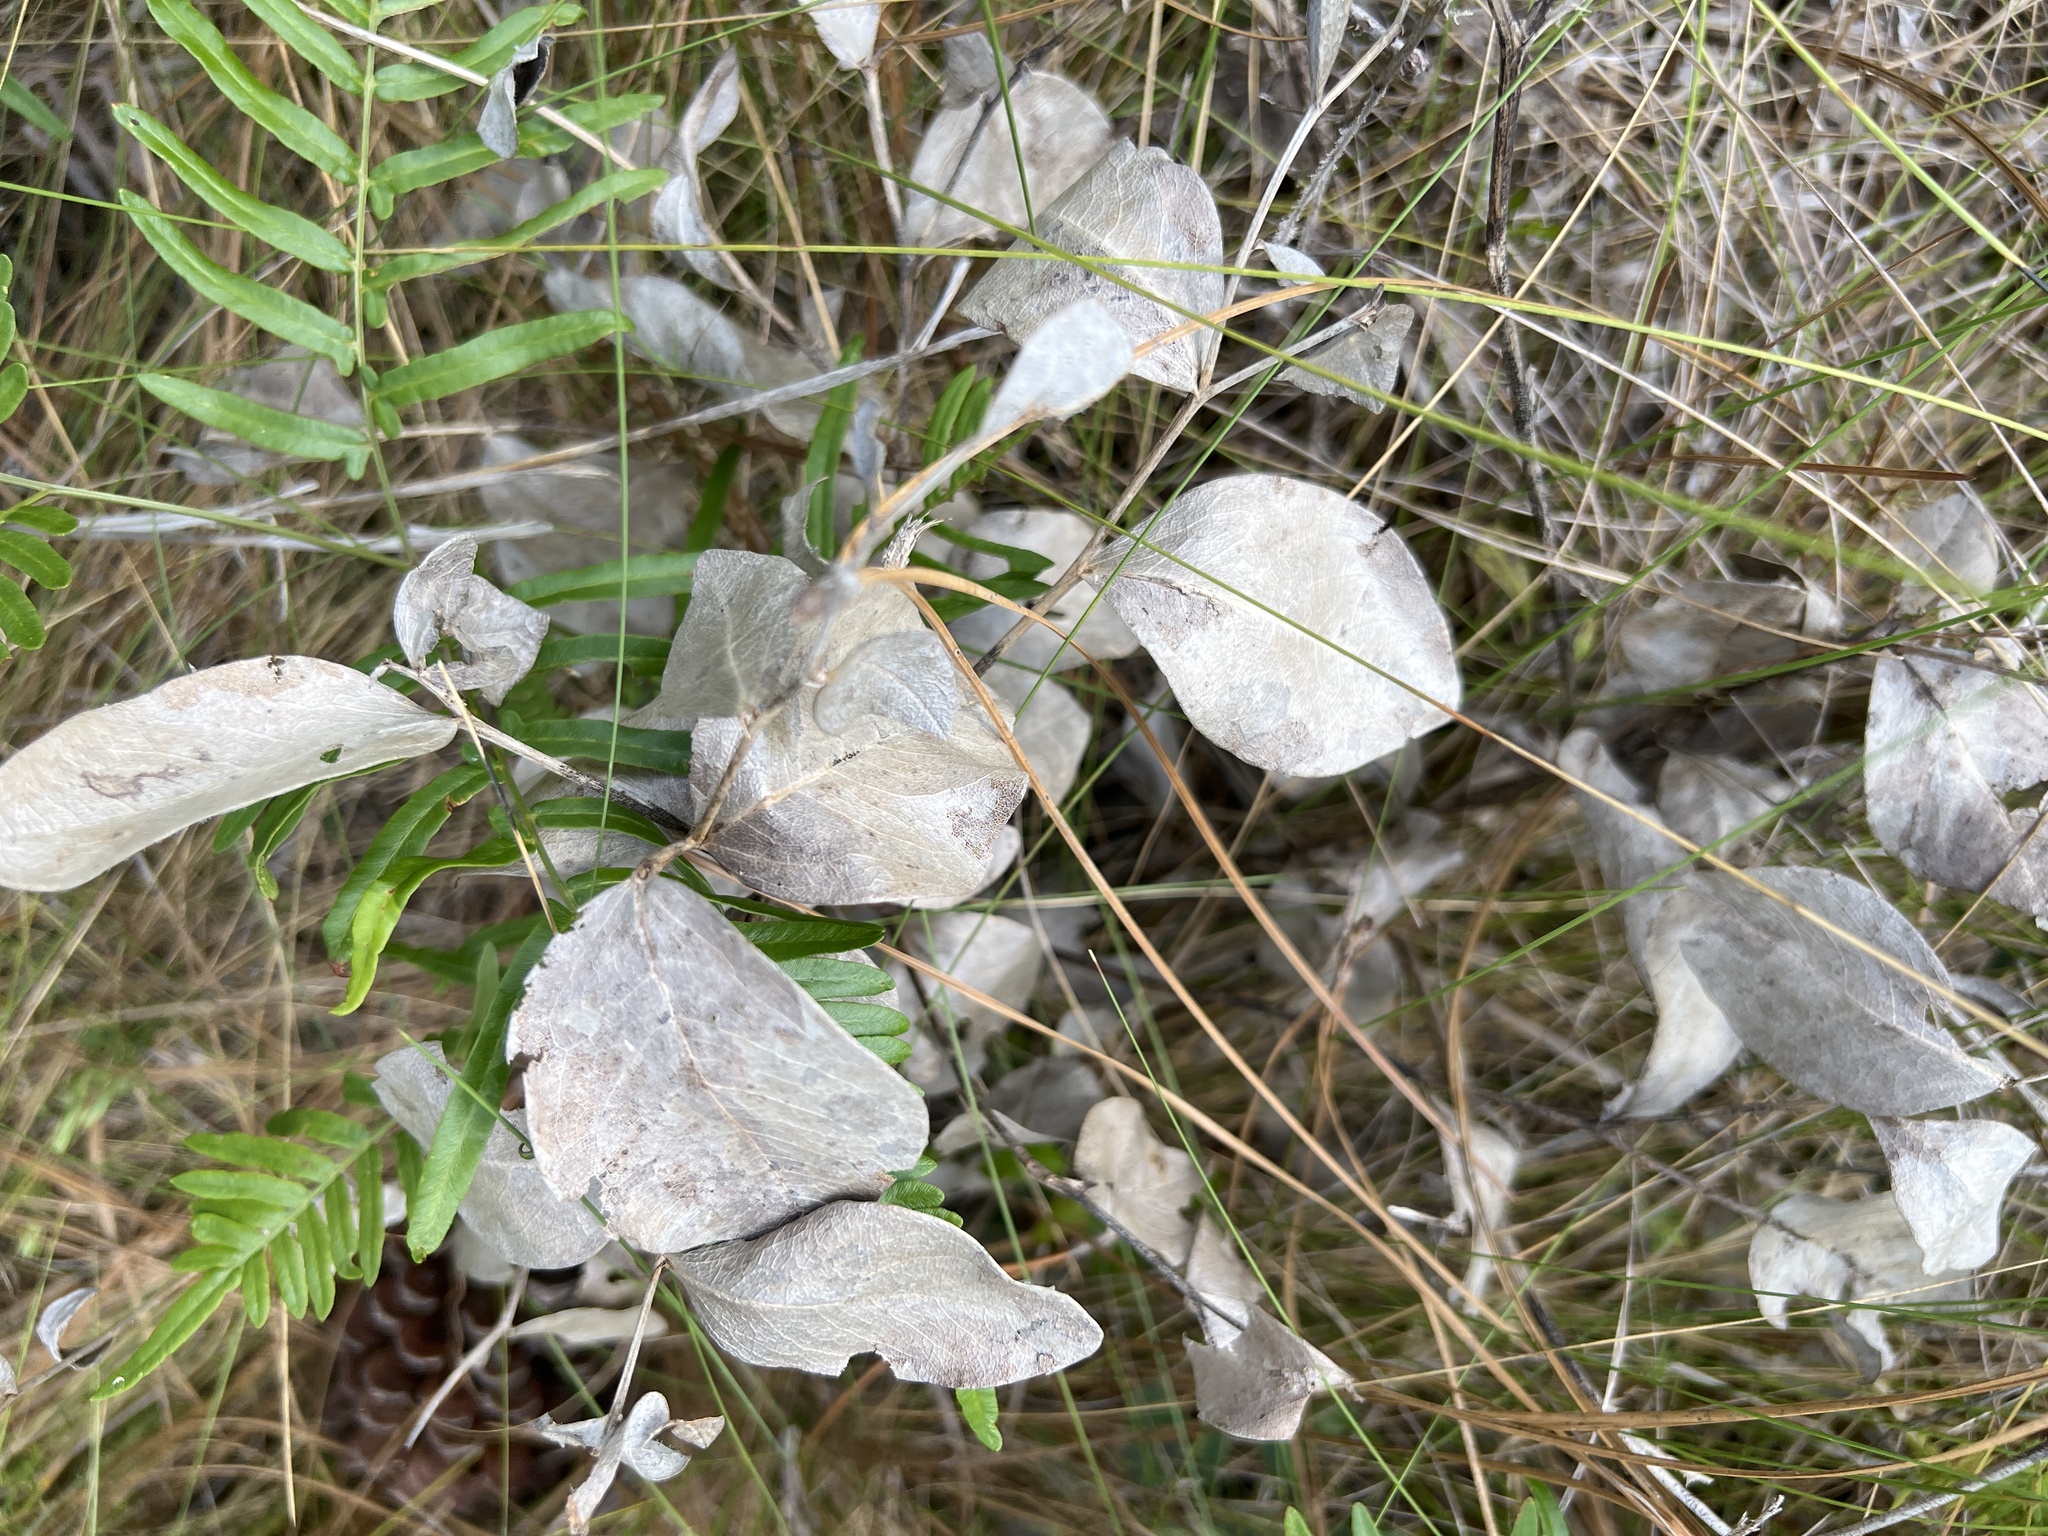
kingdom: Plantae
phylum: Tracheophyta
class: Magnoliopsida
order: Fabales
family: Fabaceae
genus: Baptisia
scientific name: Baptisia simplicifolia
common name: Scareweed
